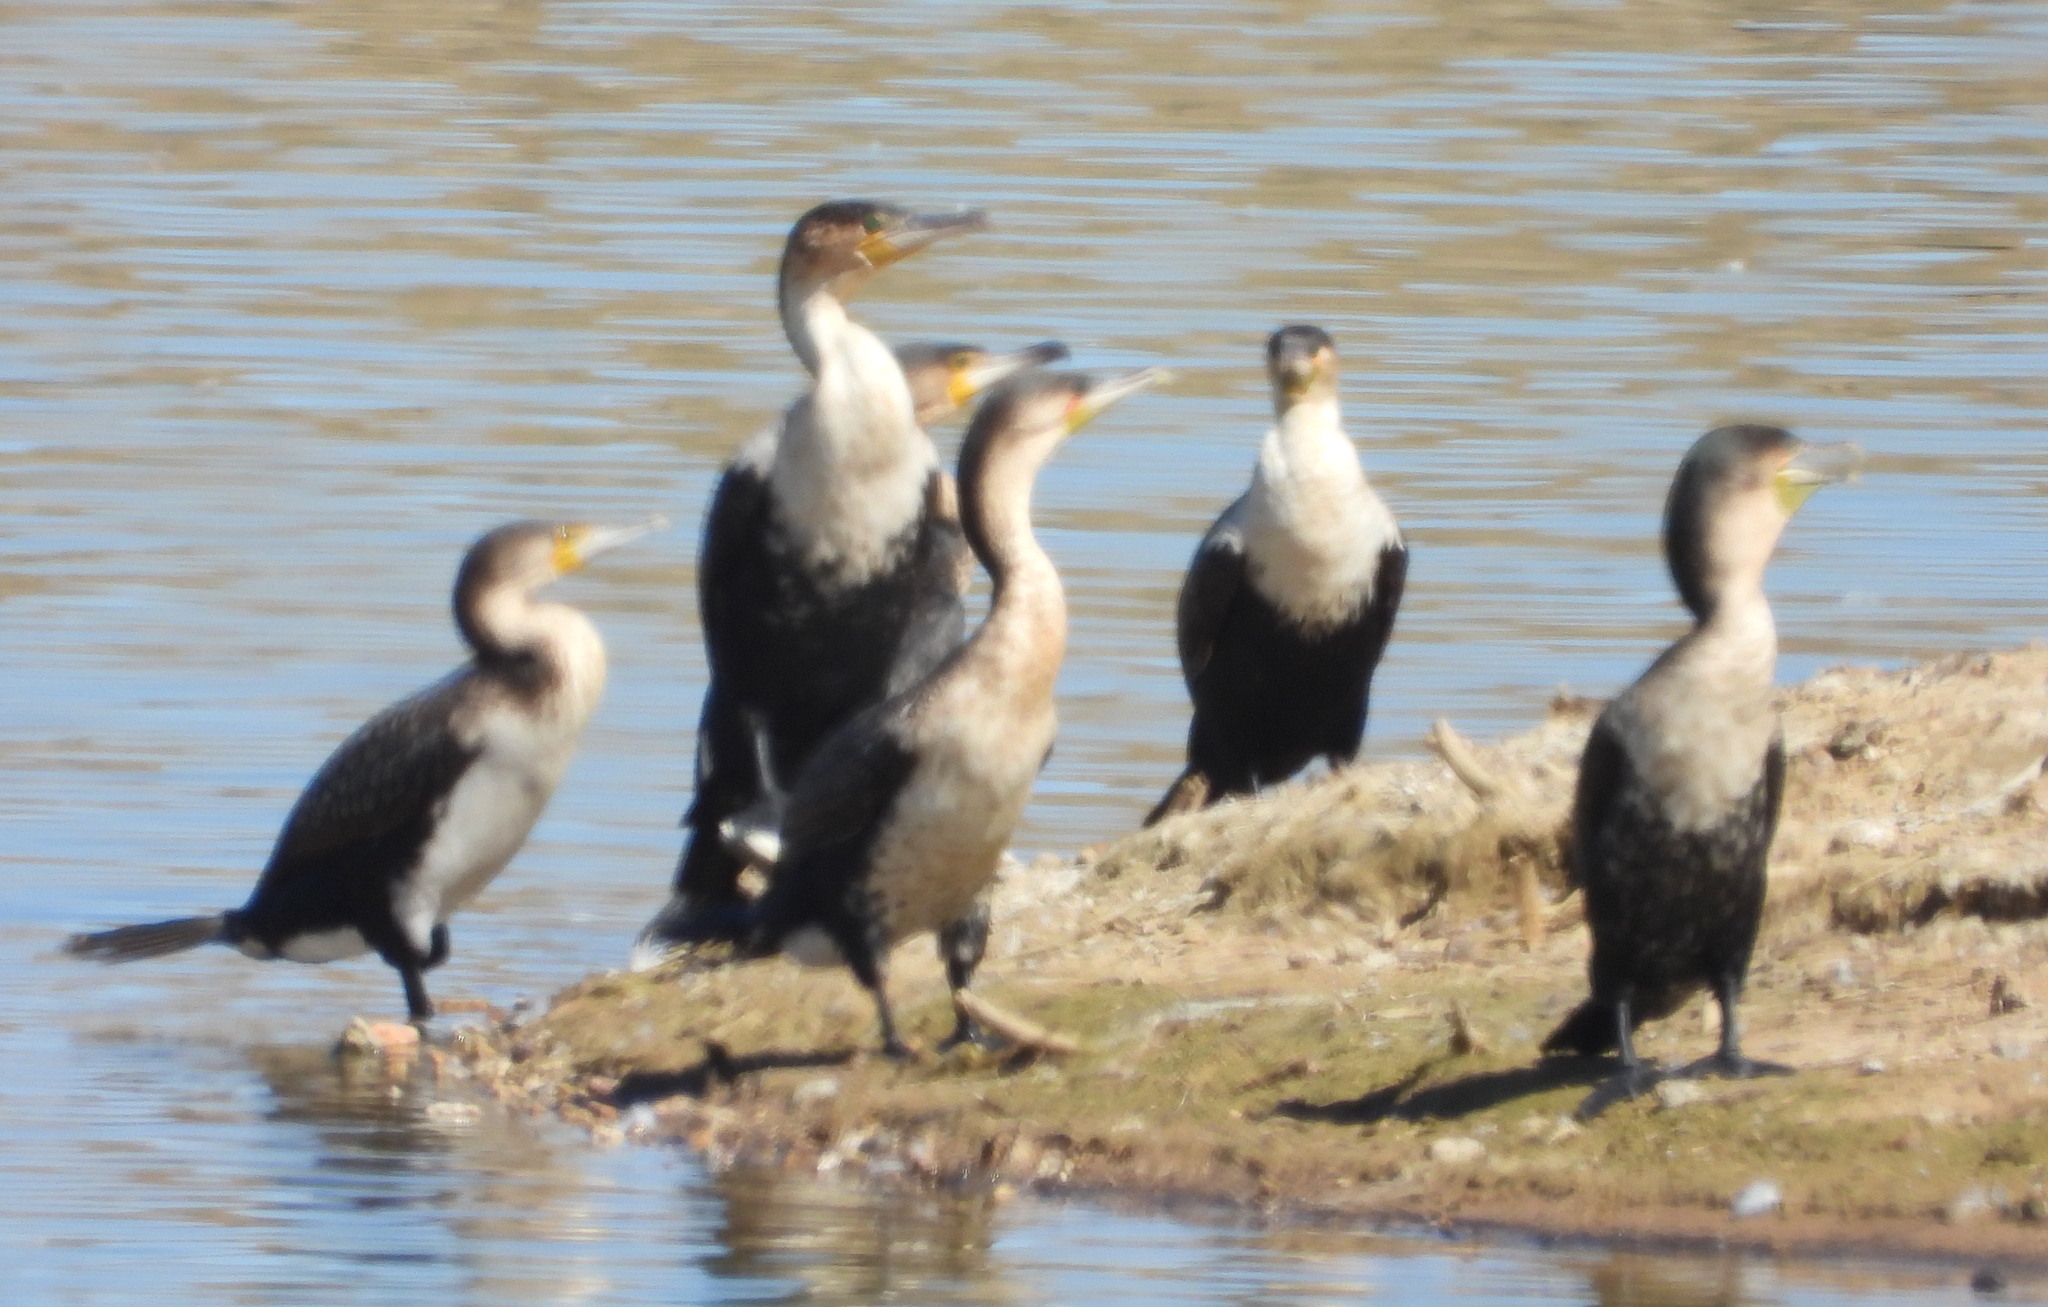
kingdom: Animalia
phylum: Chordata
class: Aves
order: Suliformes
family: Phalacrocoracidae
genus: Phalacrocorax
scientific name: Phalacrocorax carbo
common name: Great cormorant
